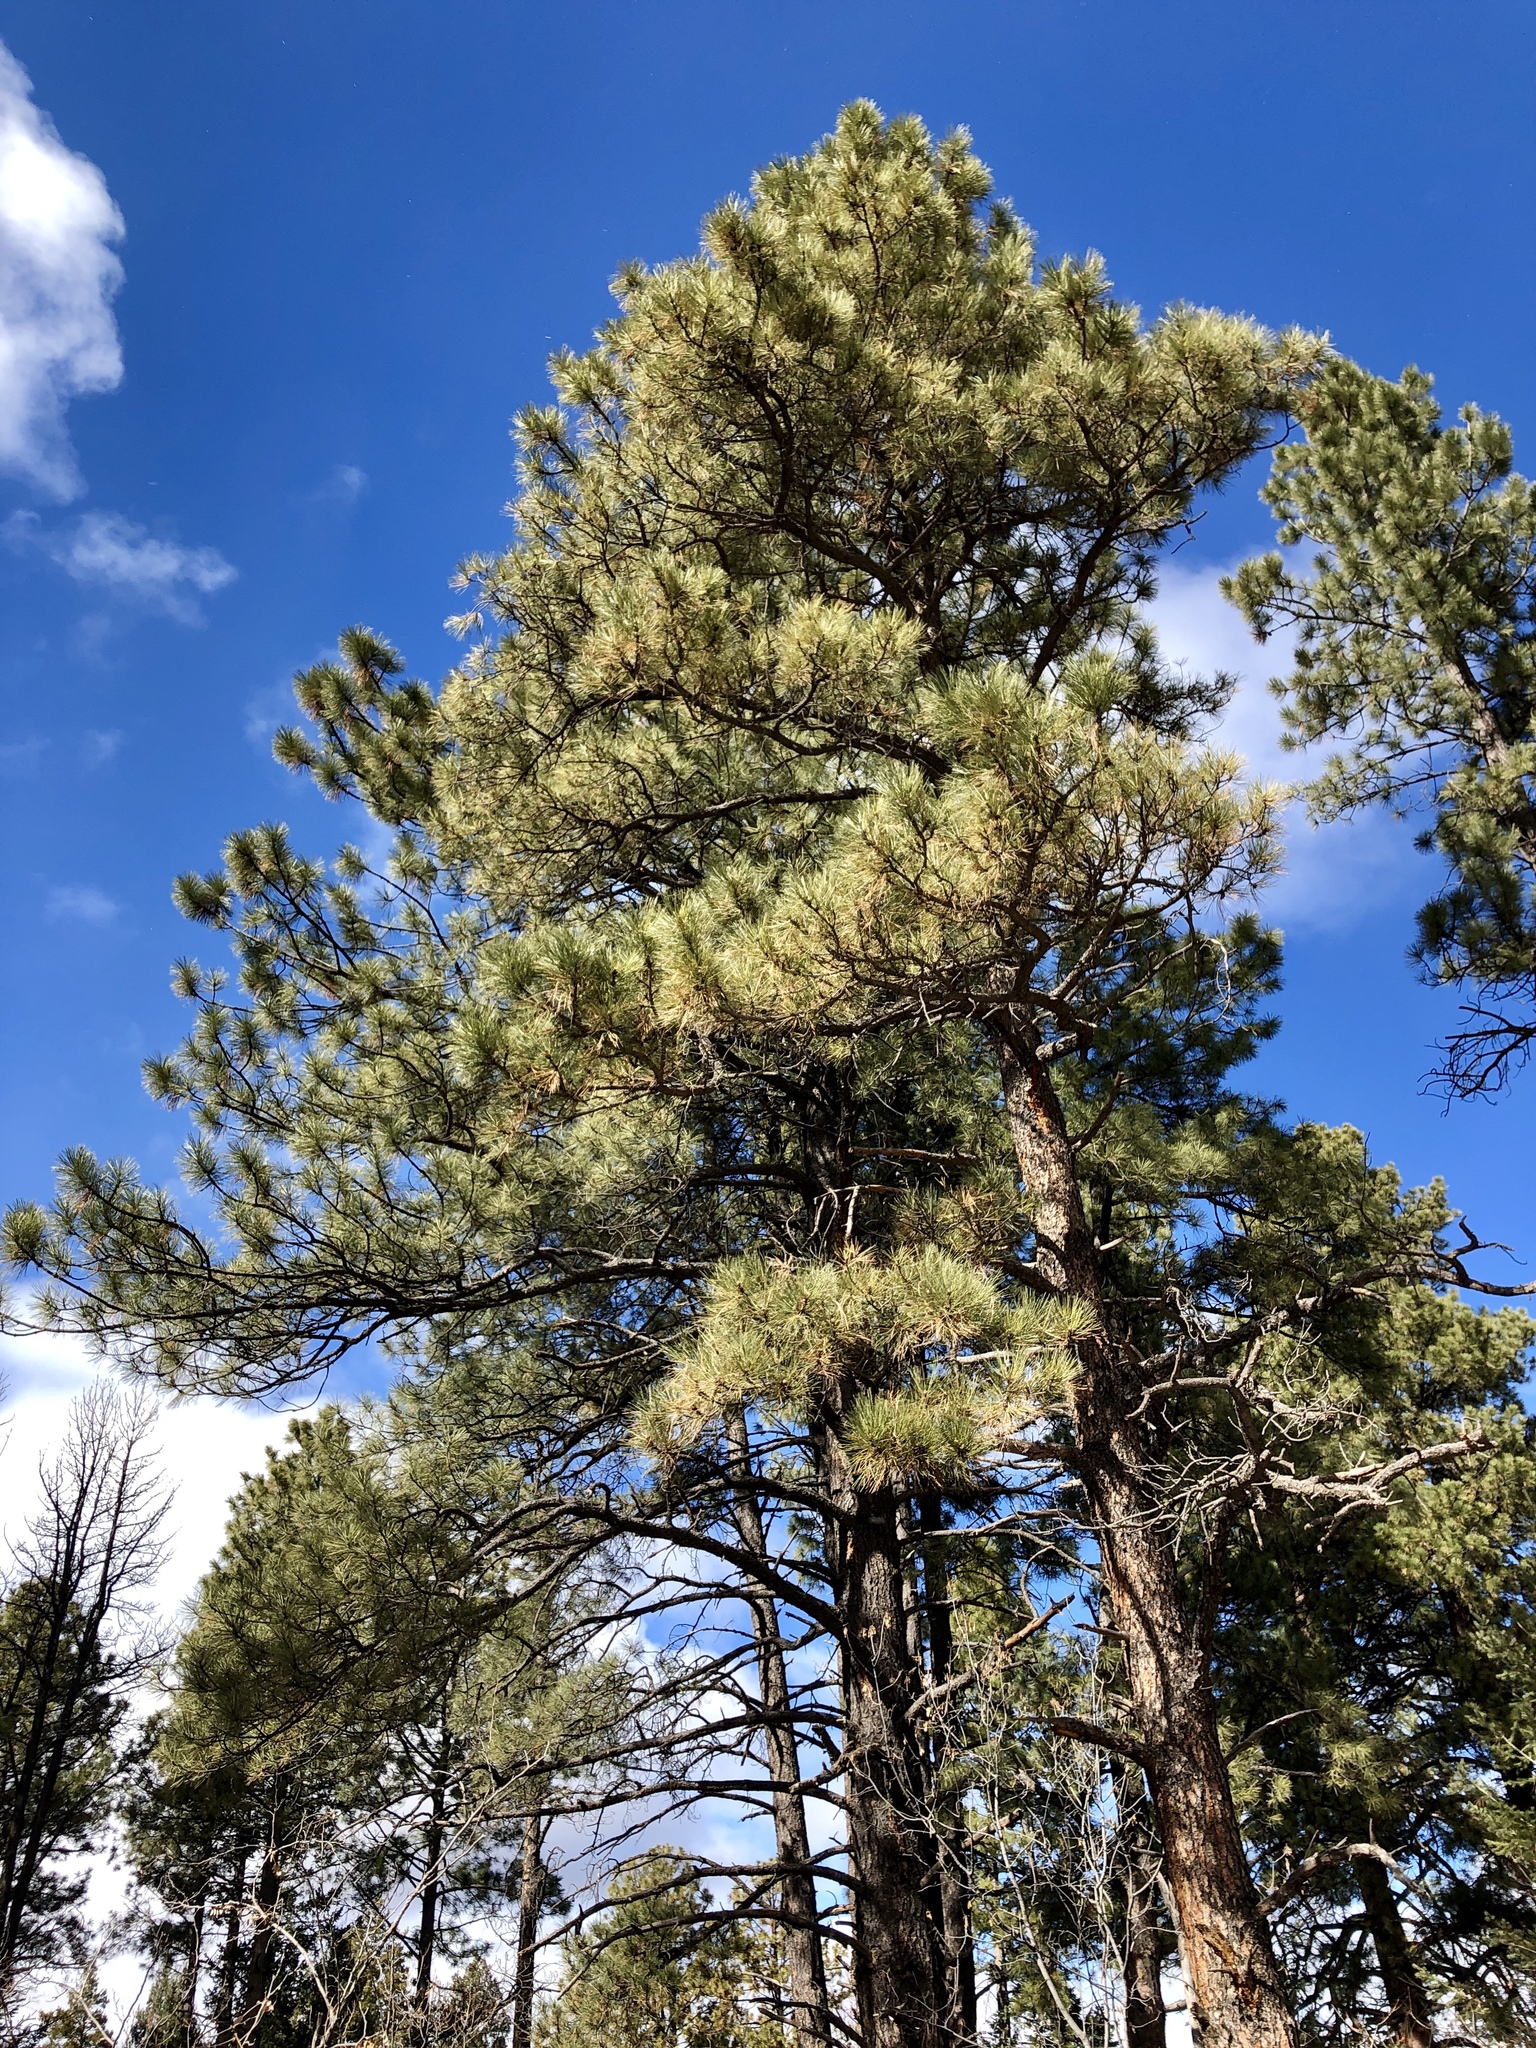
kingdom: Plantae
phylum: Tracheophyta
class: Pinopsida
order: Pinales
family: Pinaceae
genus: Pinus
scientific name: Pinus ponderosa
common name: Western yellow-pine
